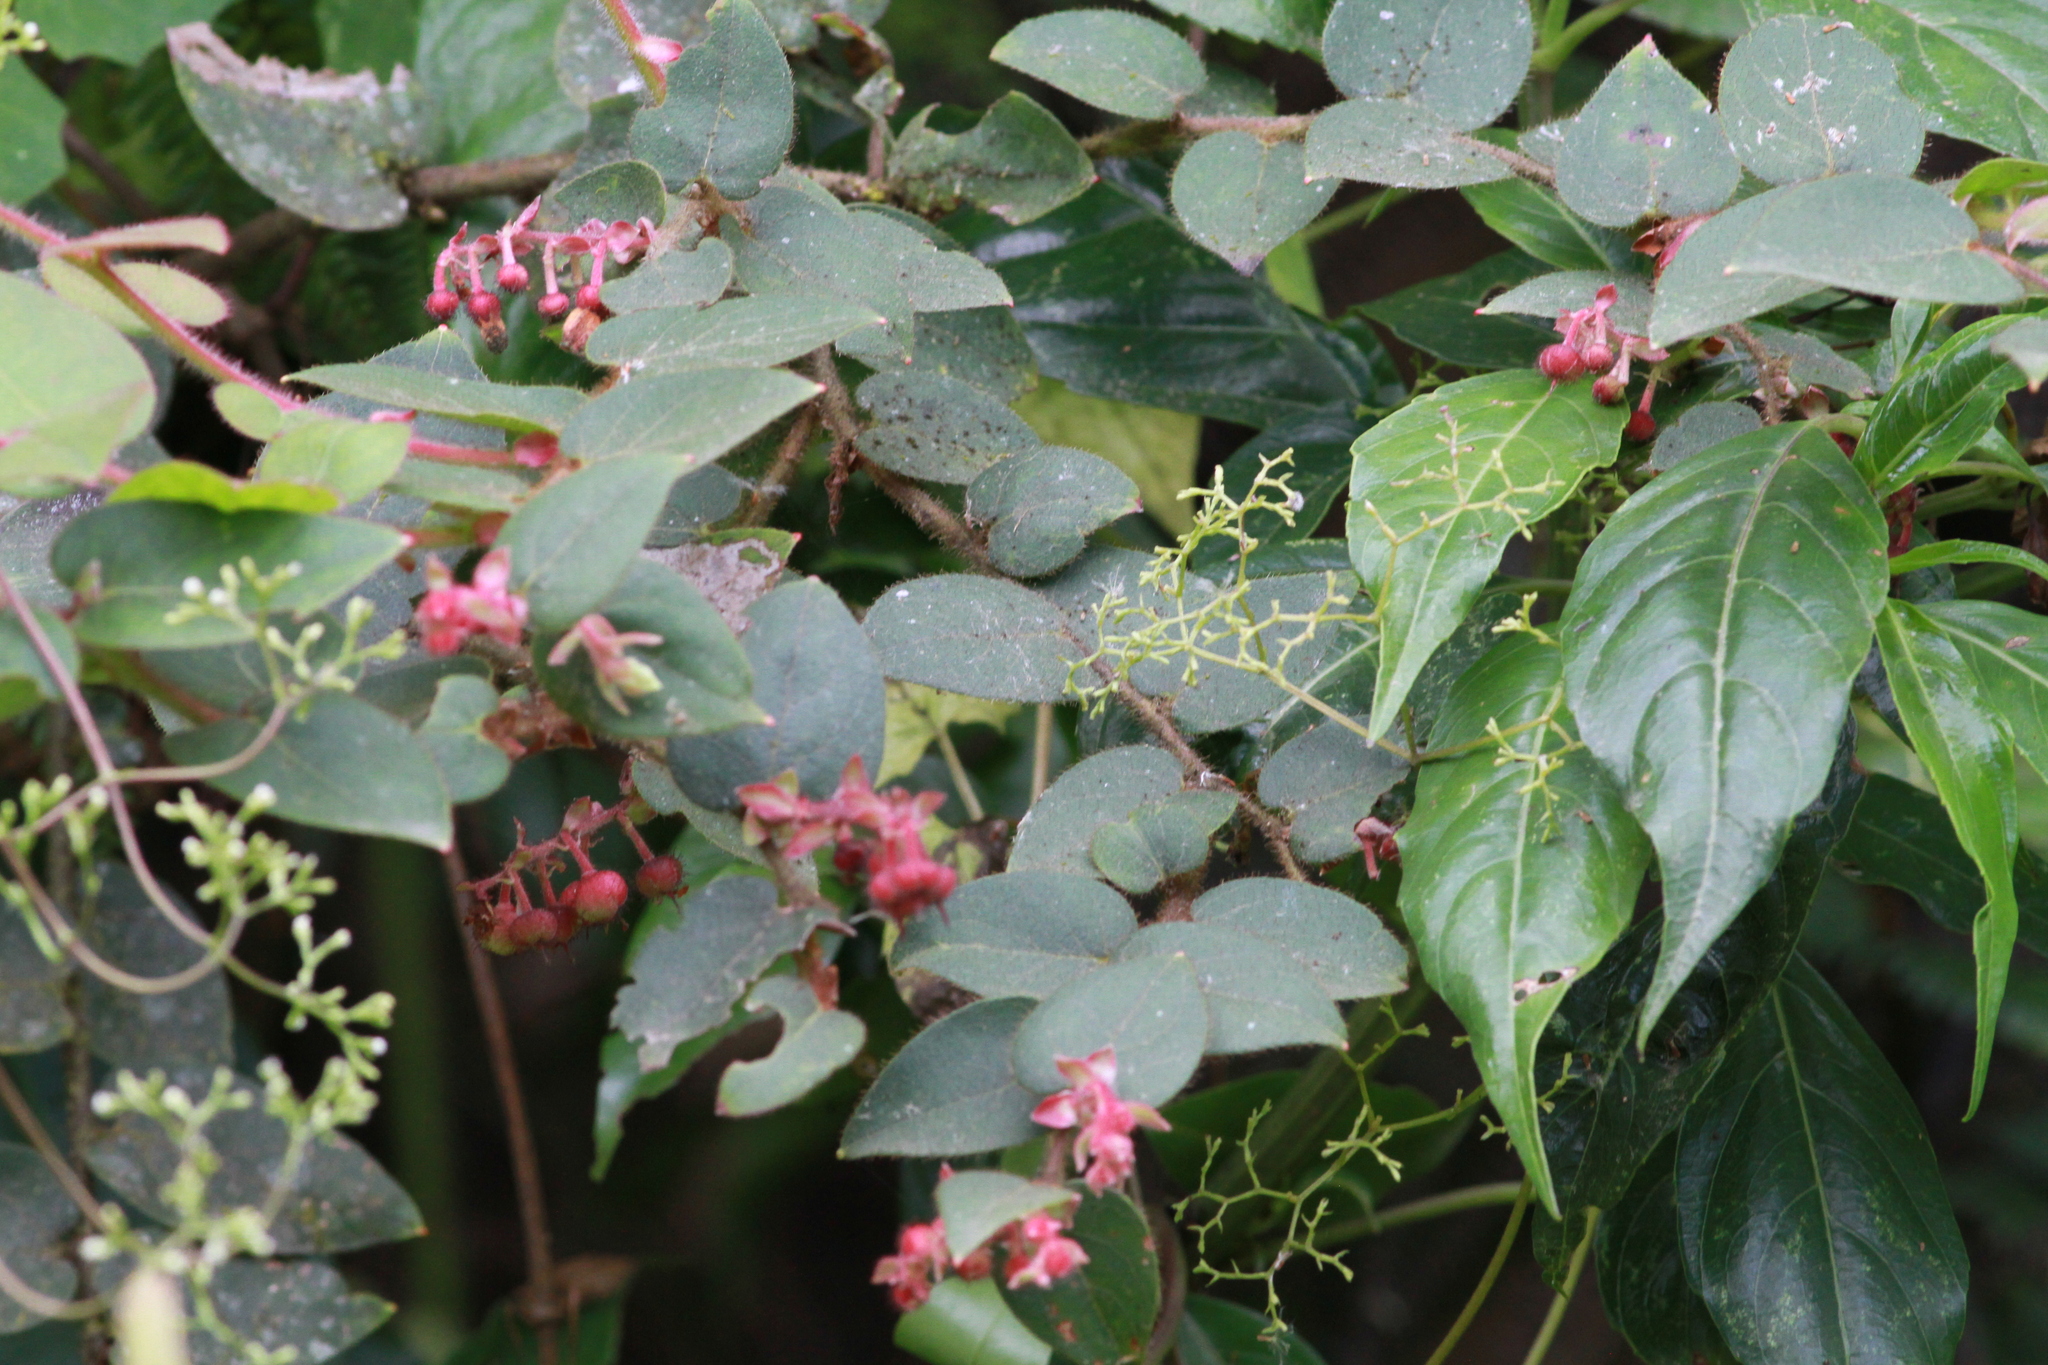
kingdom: Plantae
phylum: Tracheophyta
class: Magnoliopsida
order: Ericales
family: Ericaceae
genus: Gaultheria
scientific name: Gaultheria erecta
